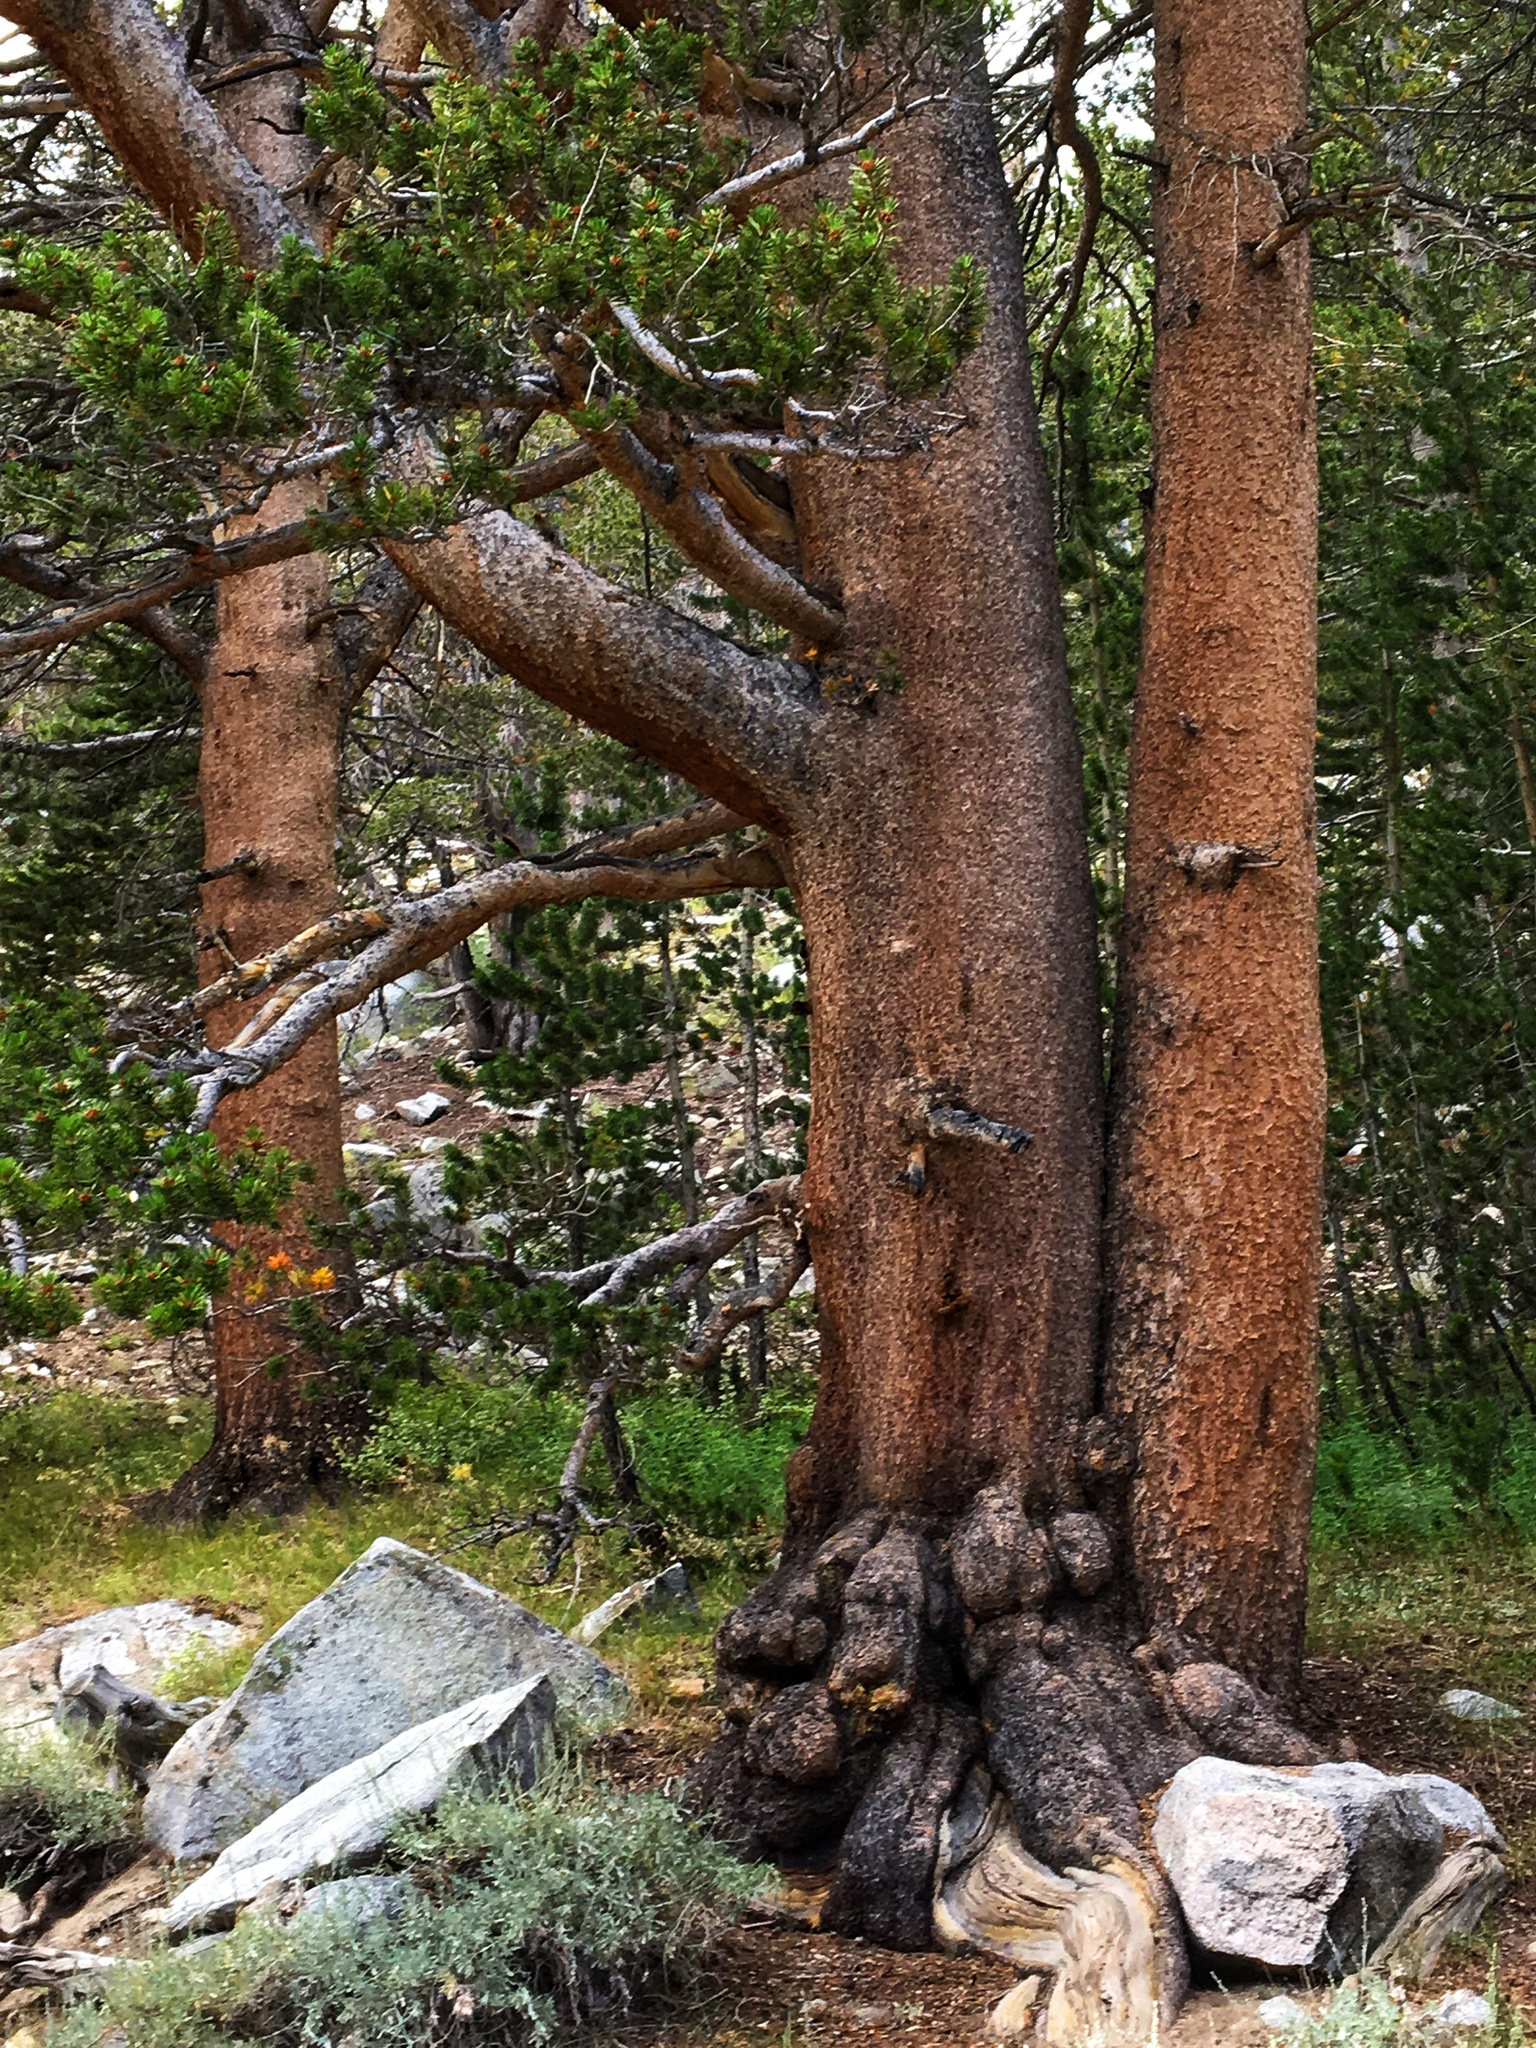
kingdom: Plantae
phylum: Tracheophyta
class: Pinopsida
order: Pinales
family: Pinaceae
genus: Pinus
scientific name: Pinus contorta
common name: Lodgepole pine
